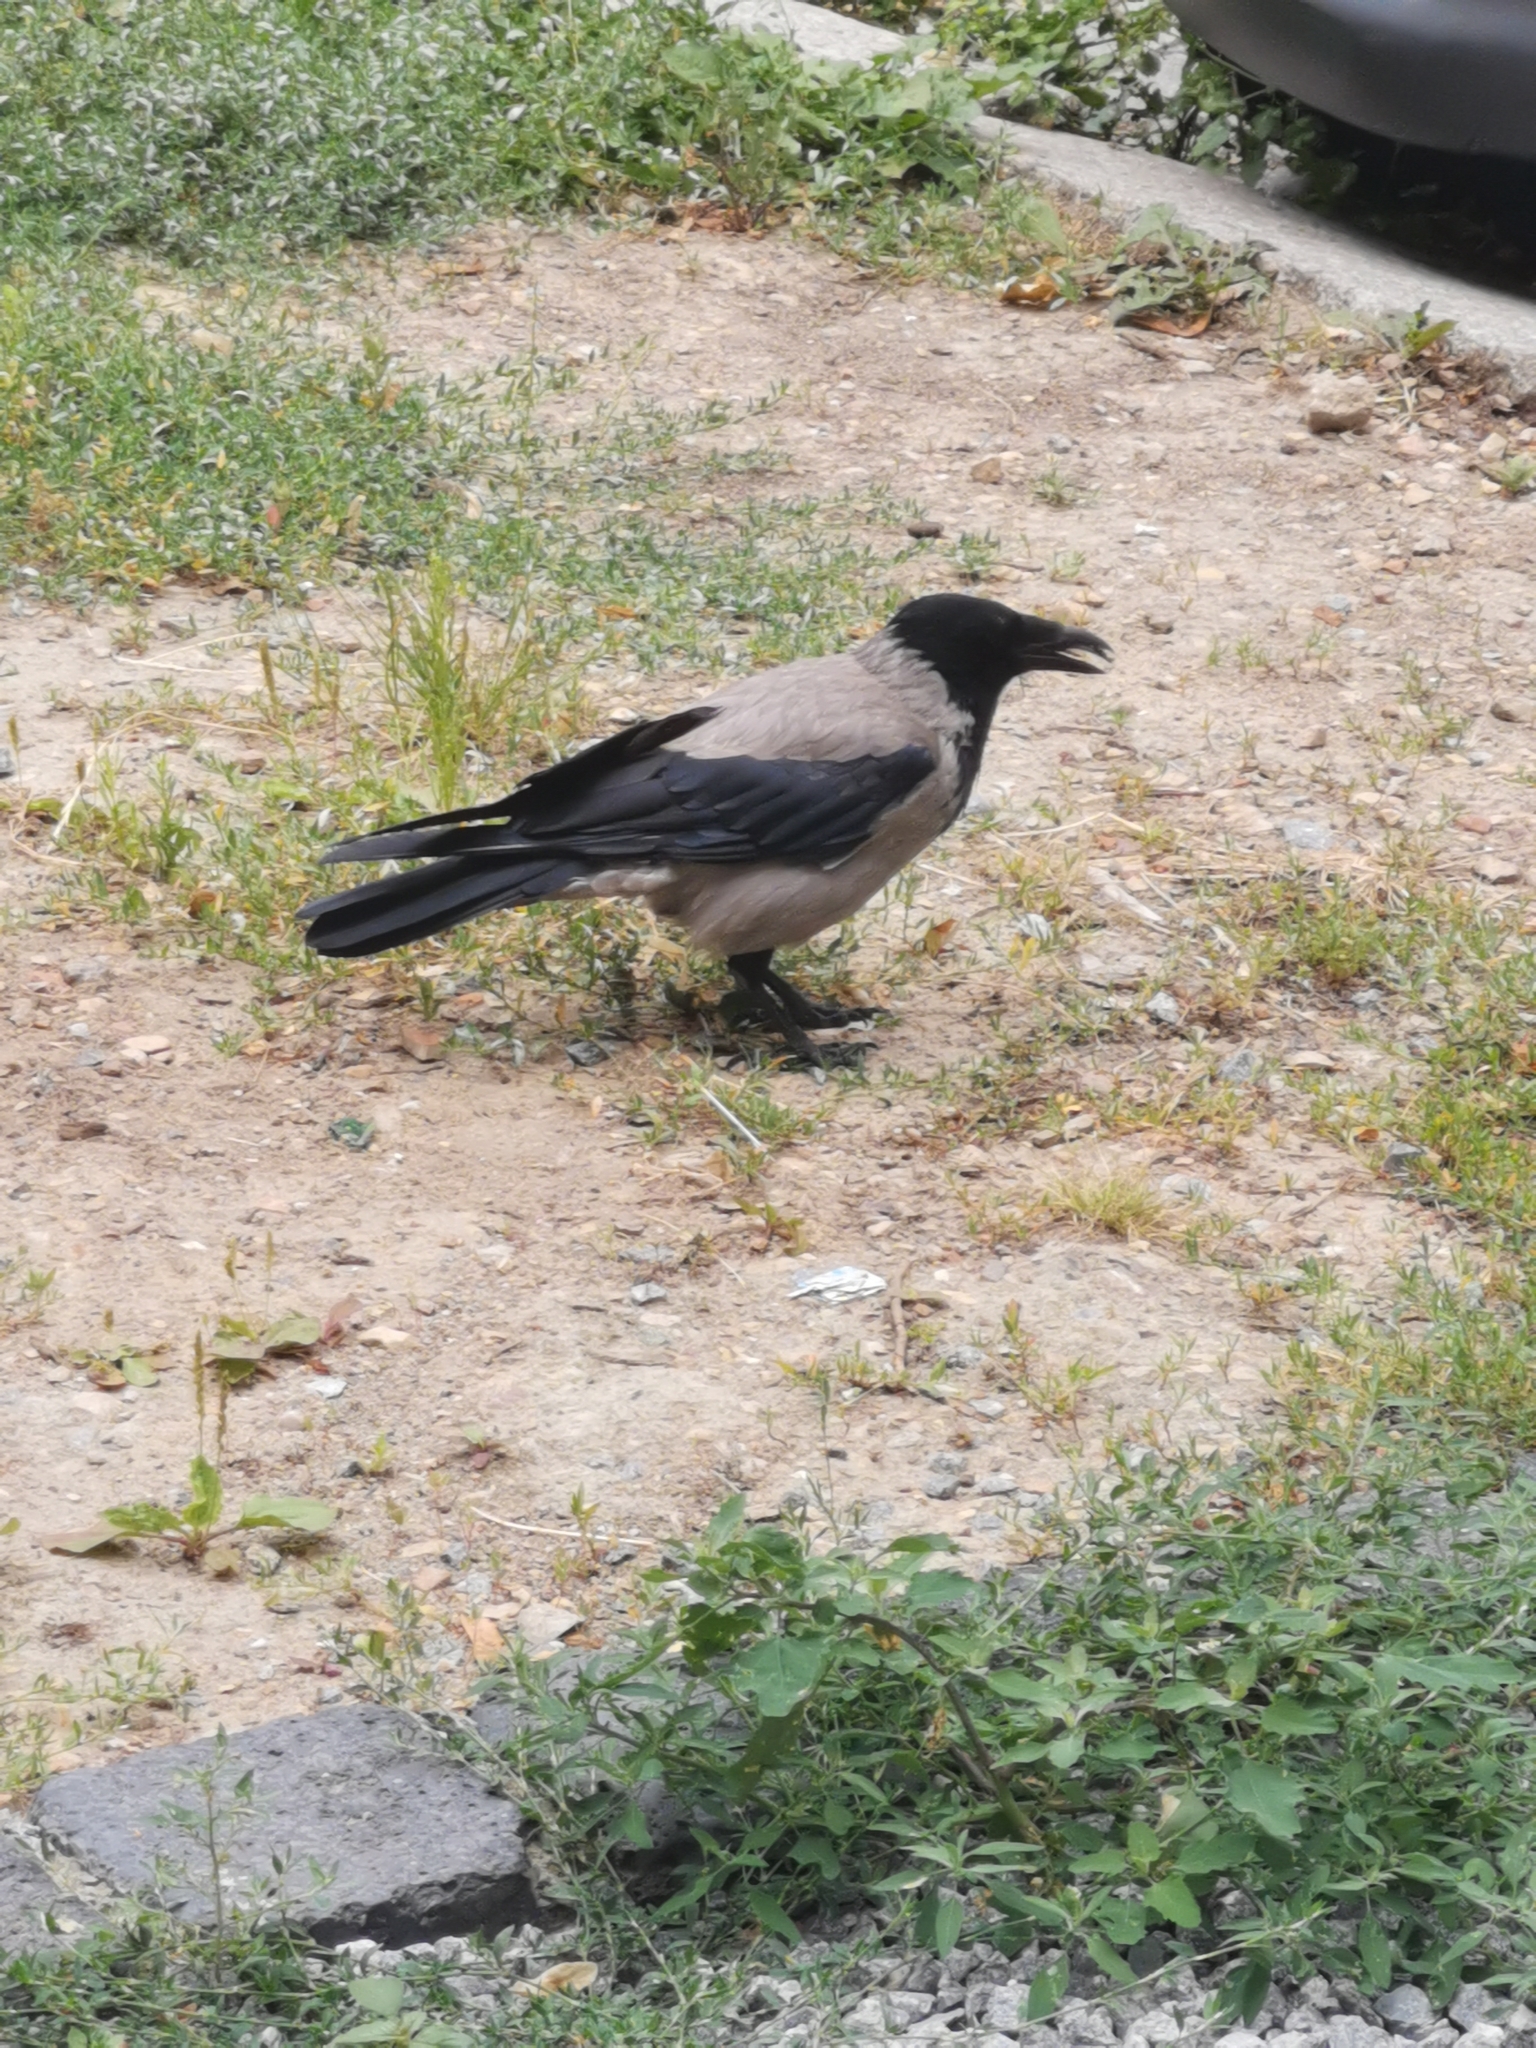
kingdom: Animalia
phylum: Chordata
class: Aves
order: Passeriformes
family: Corvidae
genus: Corvus
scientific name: Corvus cornix
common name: Hooded crow
